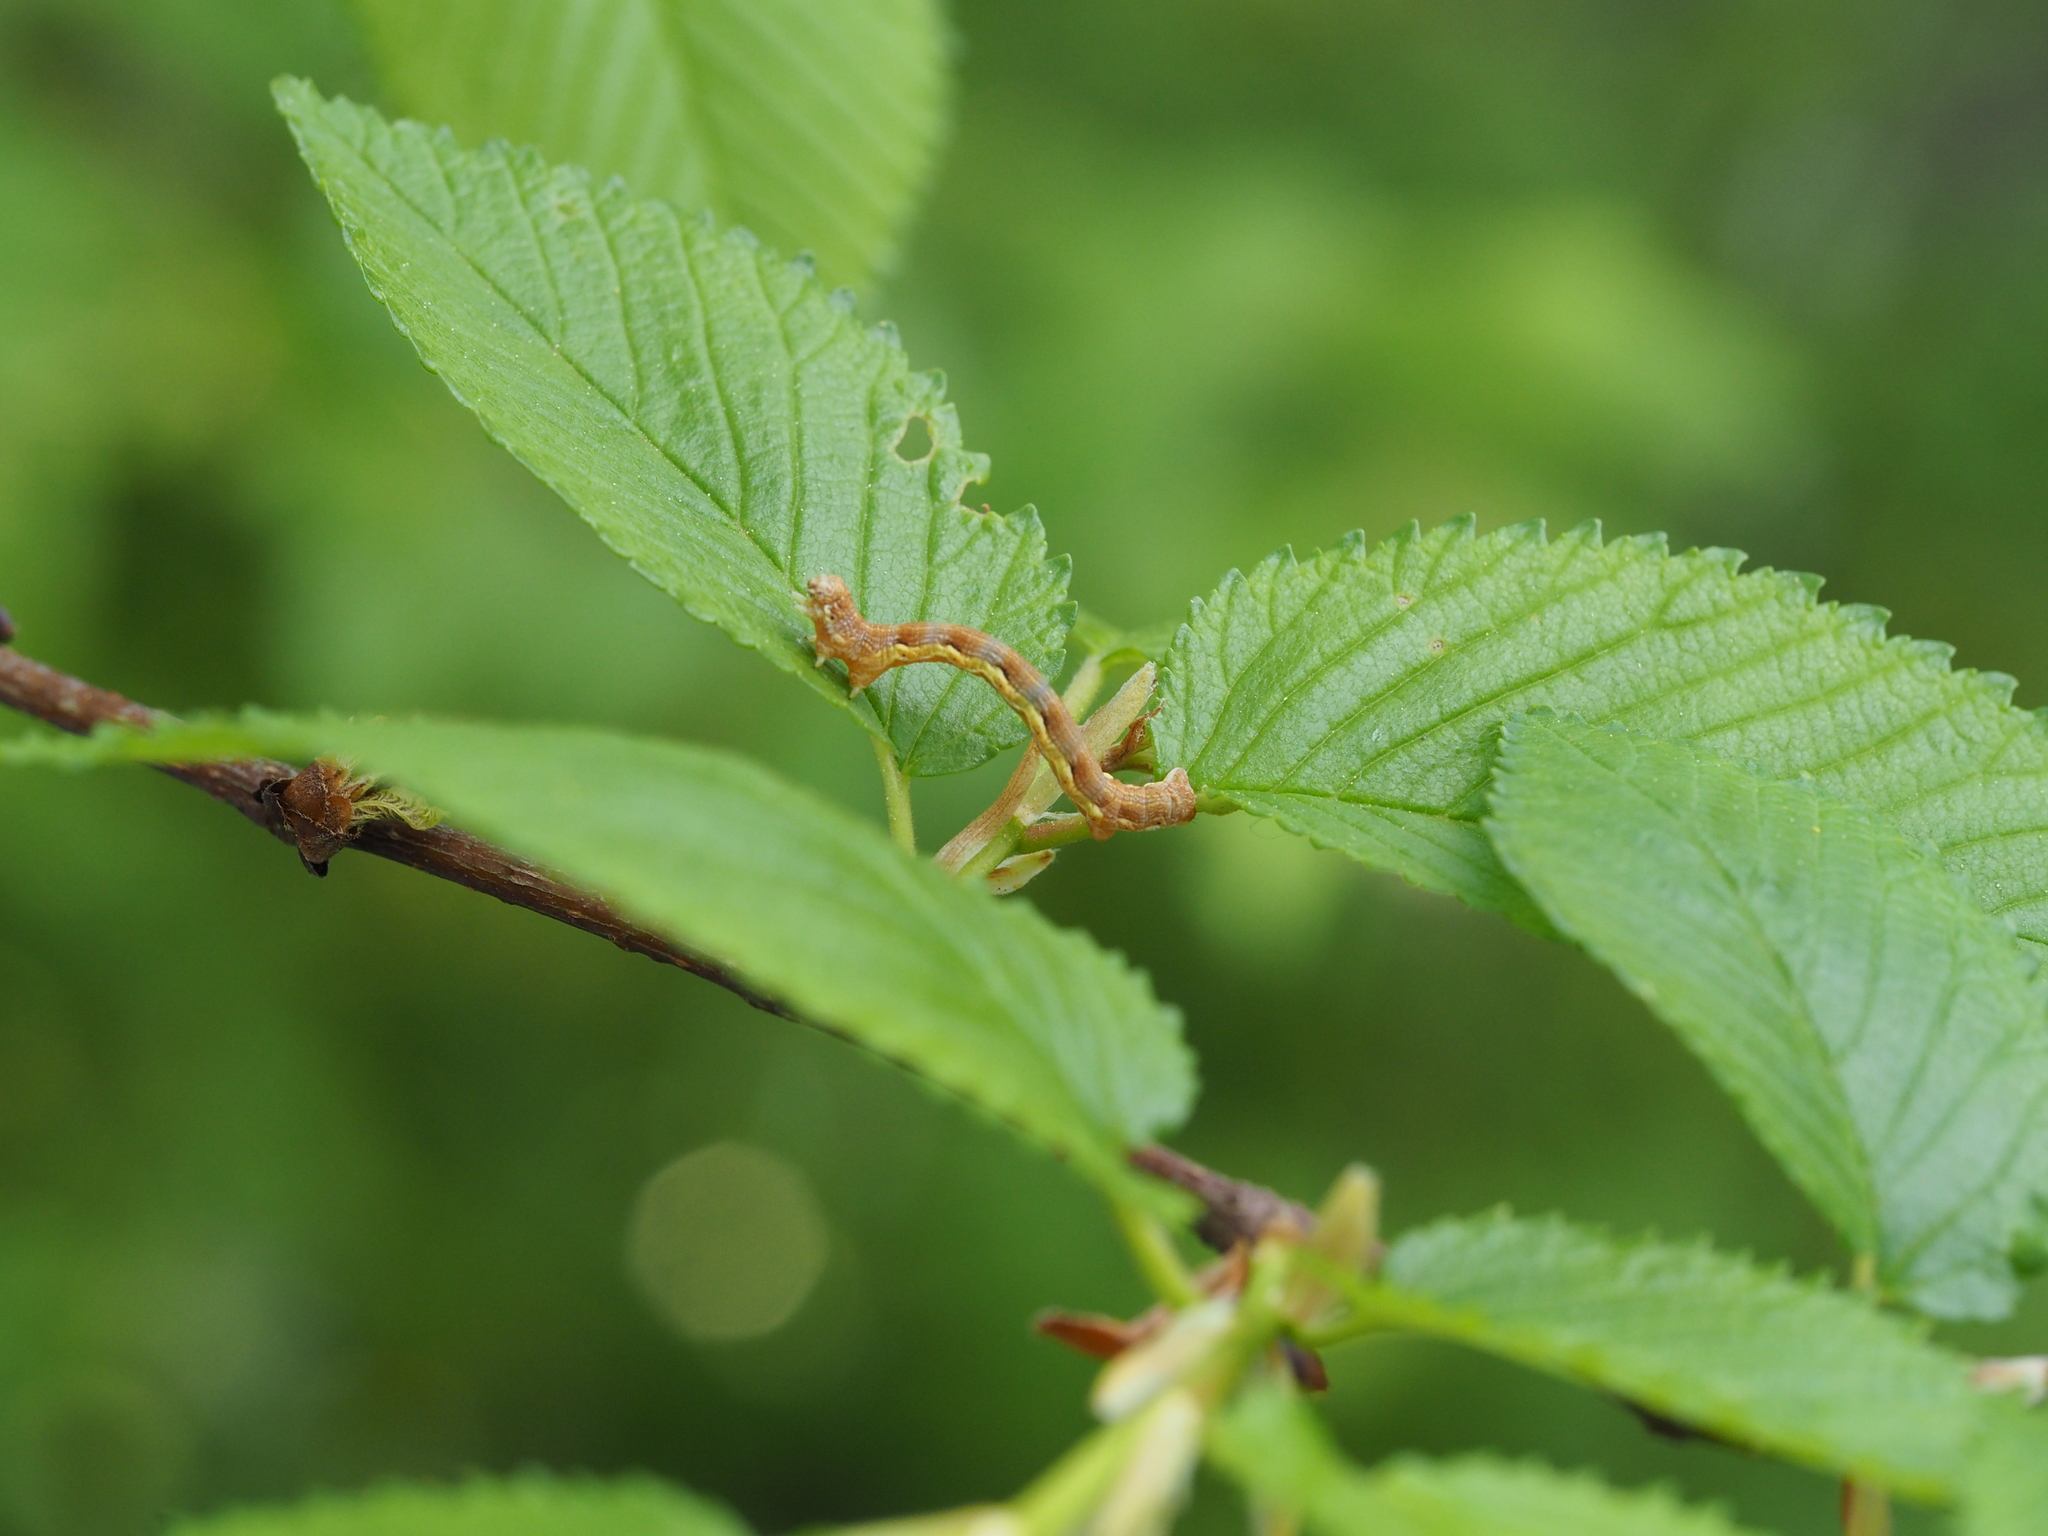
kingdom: Animalia
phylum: Arthropoda
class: Insecta
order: Lepidoptera
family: Geometridae
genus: Erannis
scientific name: Erannis defoliaria
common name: Mottled umber
